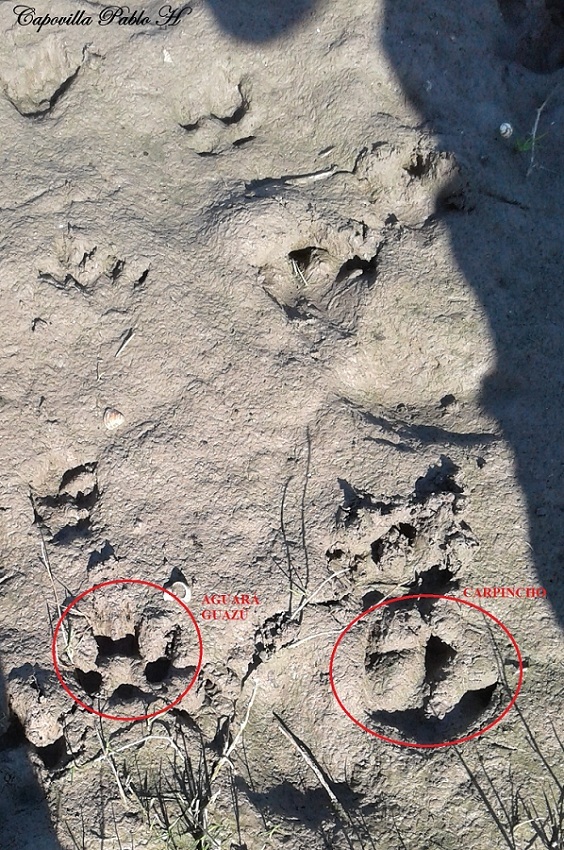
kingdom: Animalia
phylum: Chordata
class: Mammalia
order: Rodentia
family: Caviidae
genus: Hydrochoerus
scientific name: Hydrochoerus hydrochaeris
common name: Capybara
